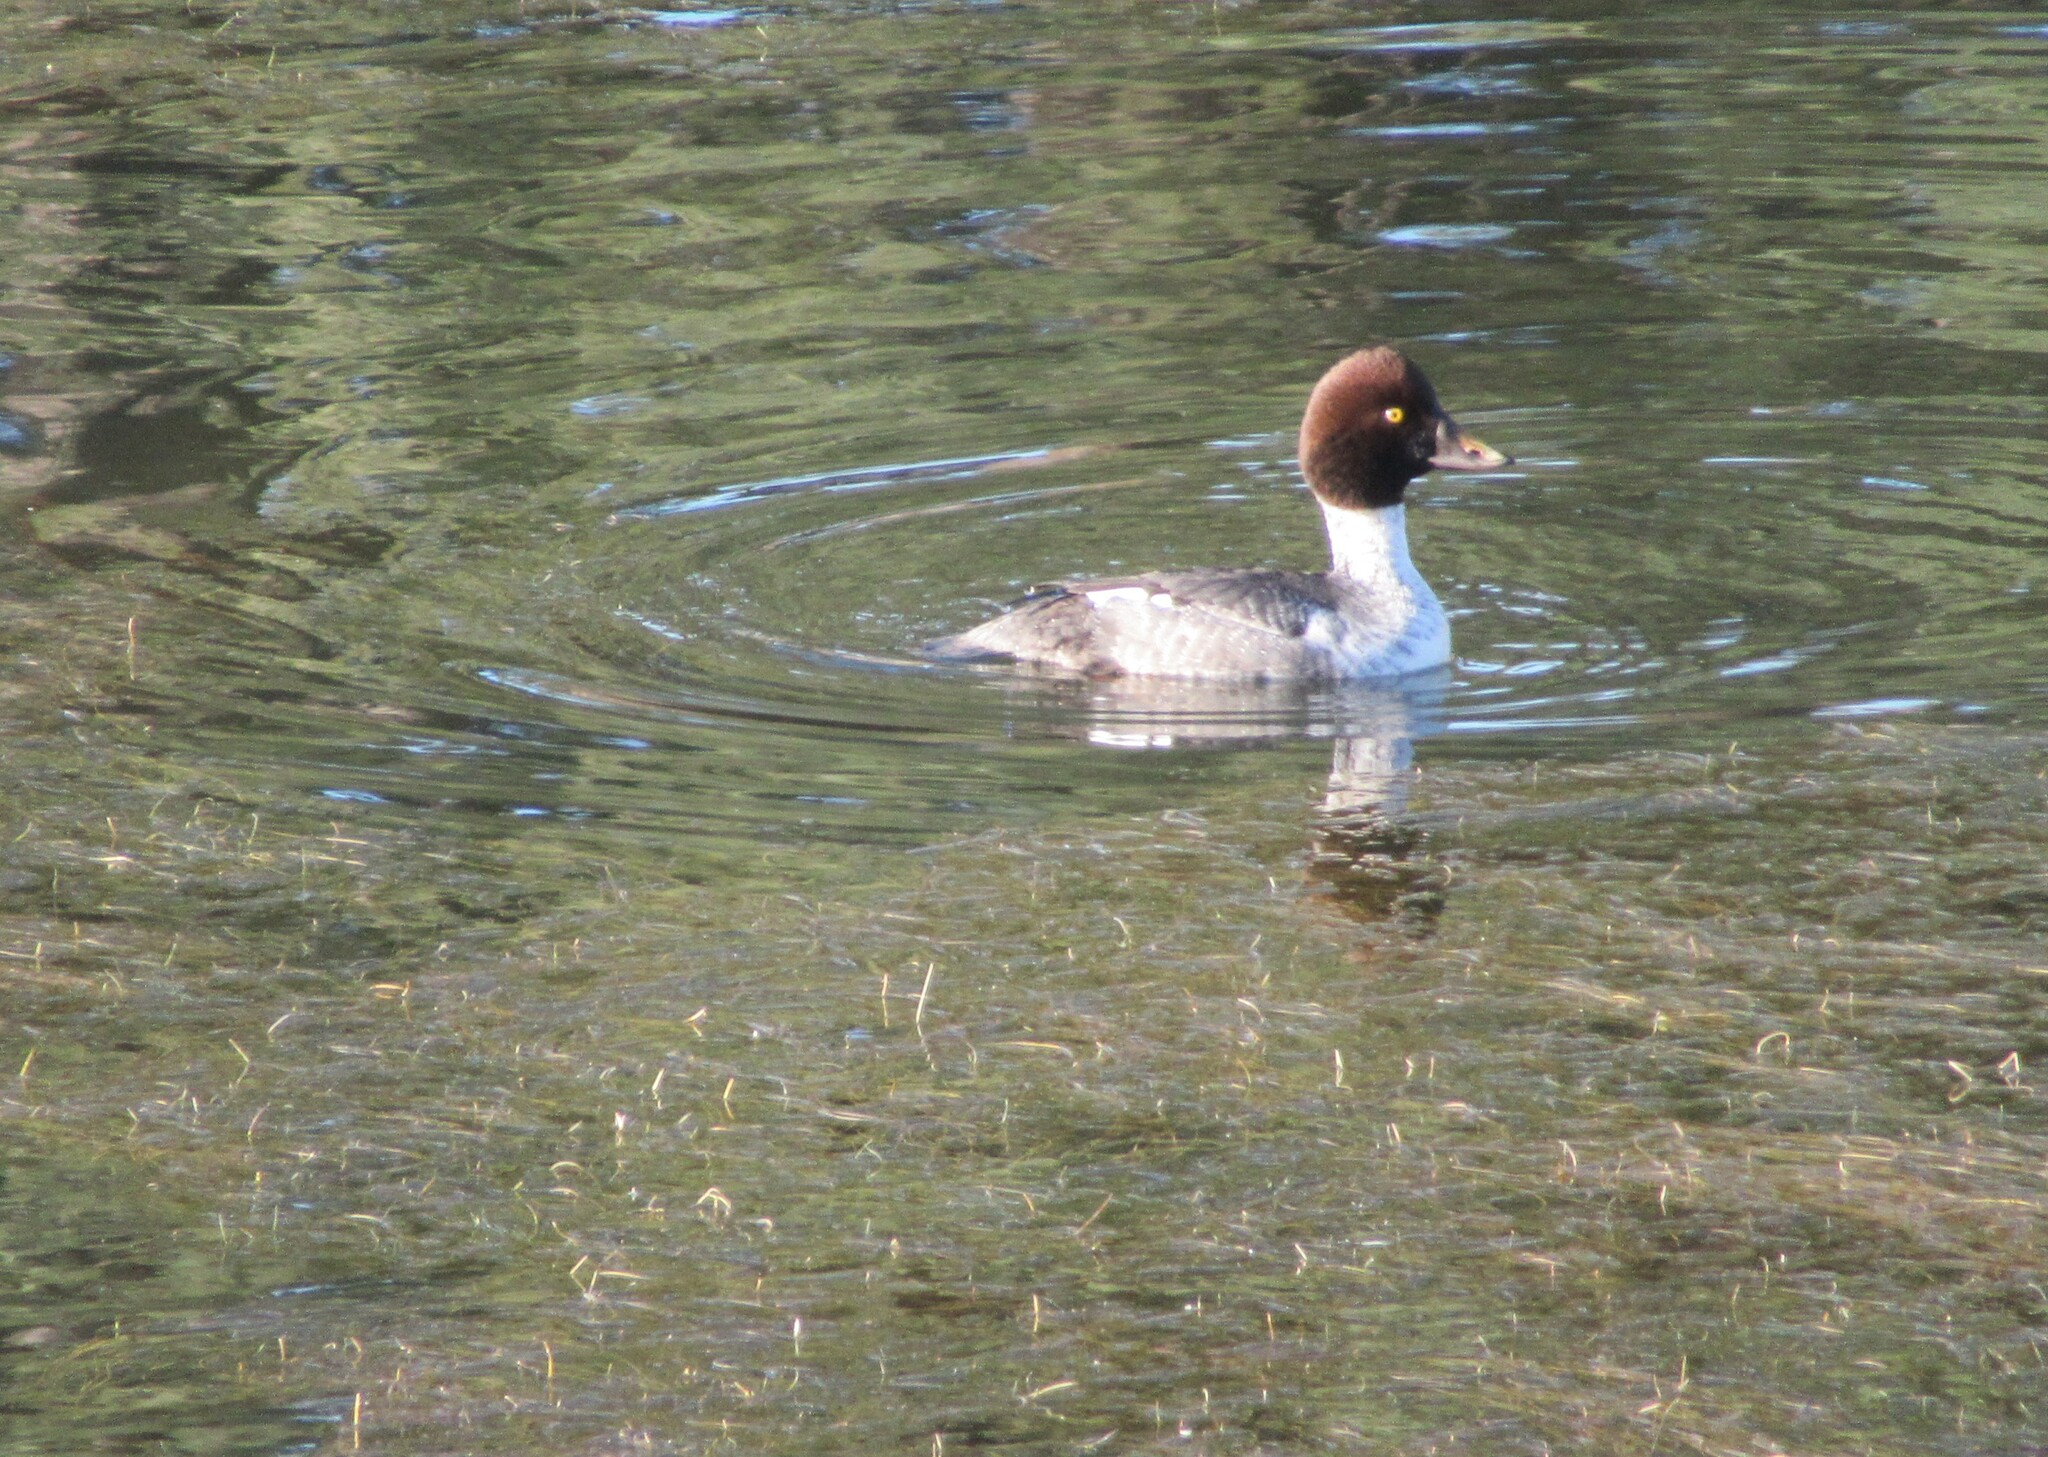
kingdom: Animalia
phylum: Chordata
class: Aves
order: Anseriformes
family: Anatidae
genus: Bucephala
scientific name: Bucephala clangula
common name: Common goldeneye
